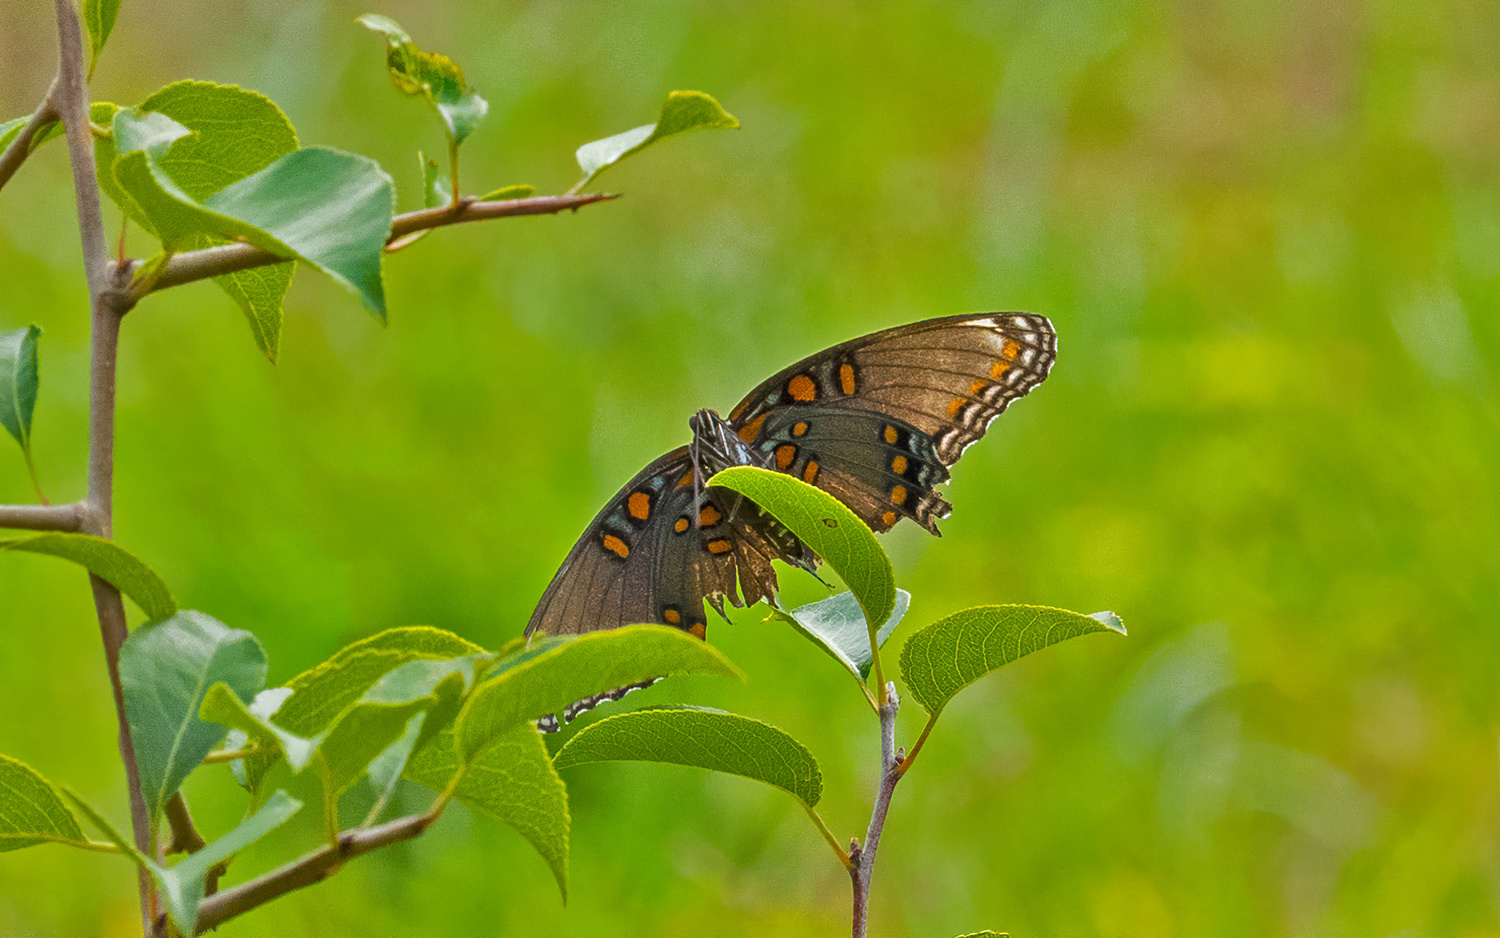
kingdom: Animalia
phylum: Arthropoda
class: Insecta
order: Lepidoptera
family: Nymphalidae
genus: Limenitis
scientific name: Limenitis astyanax
